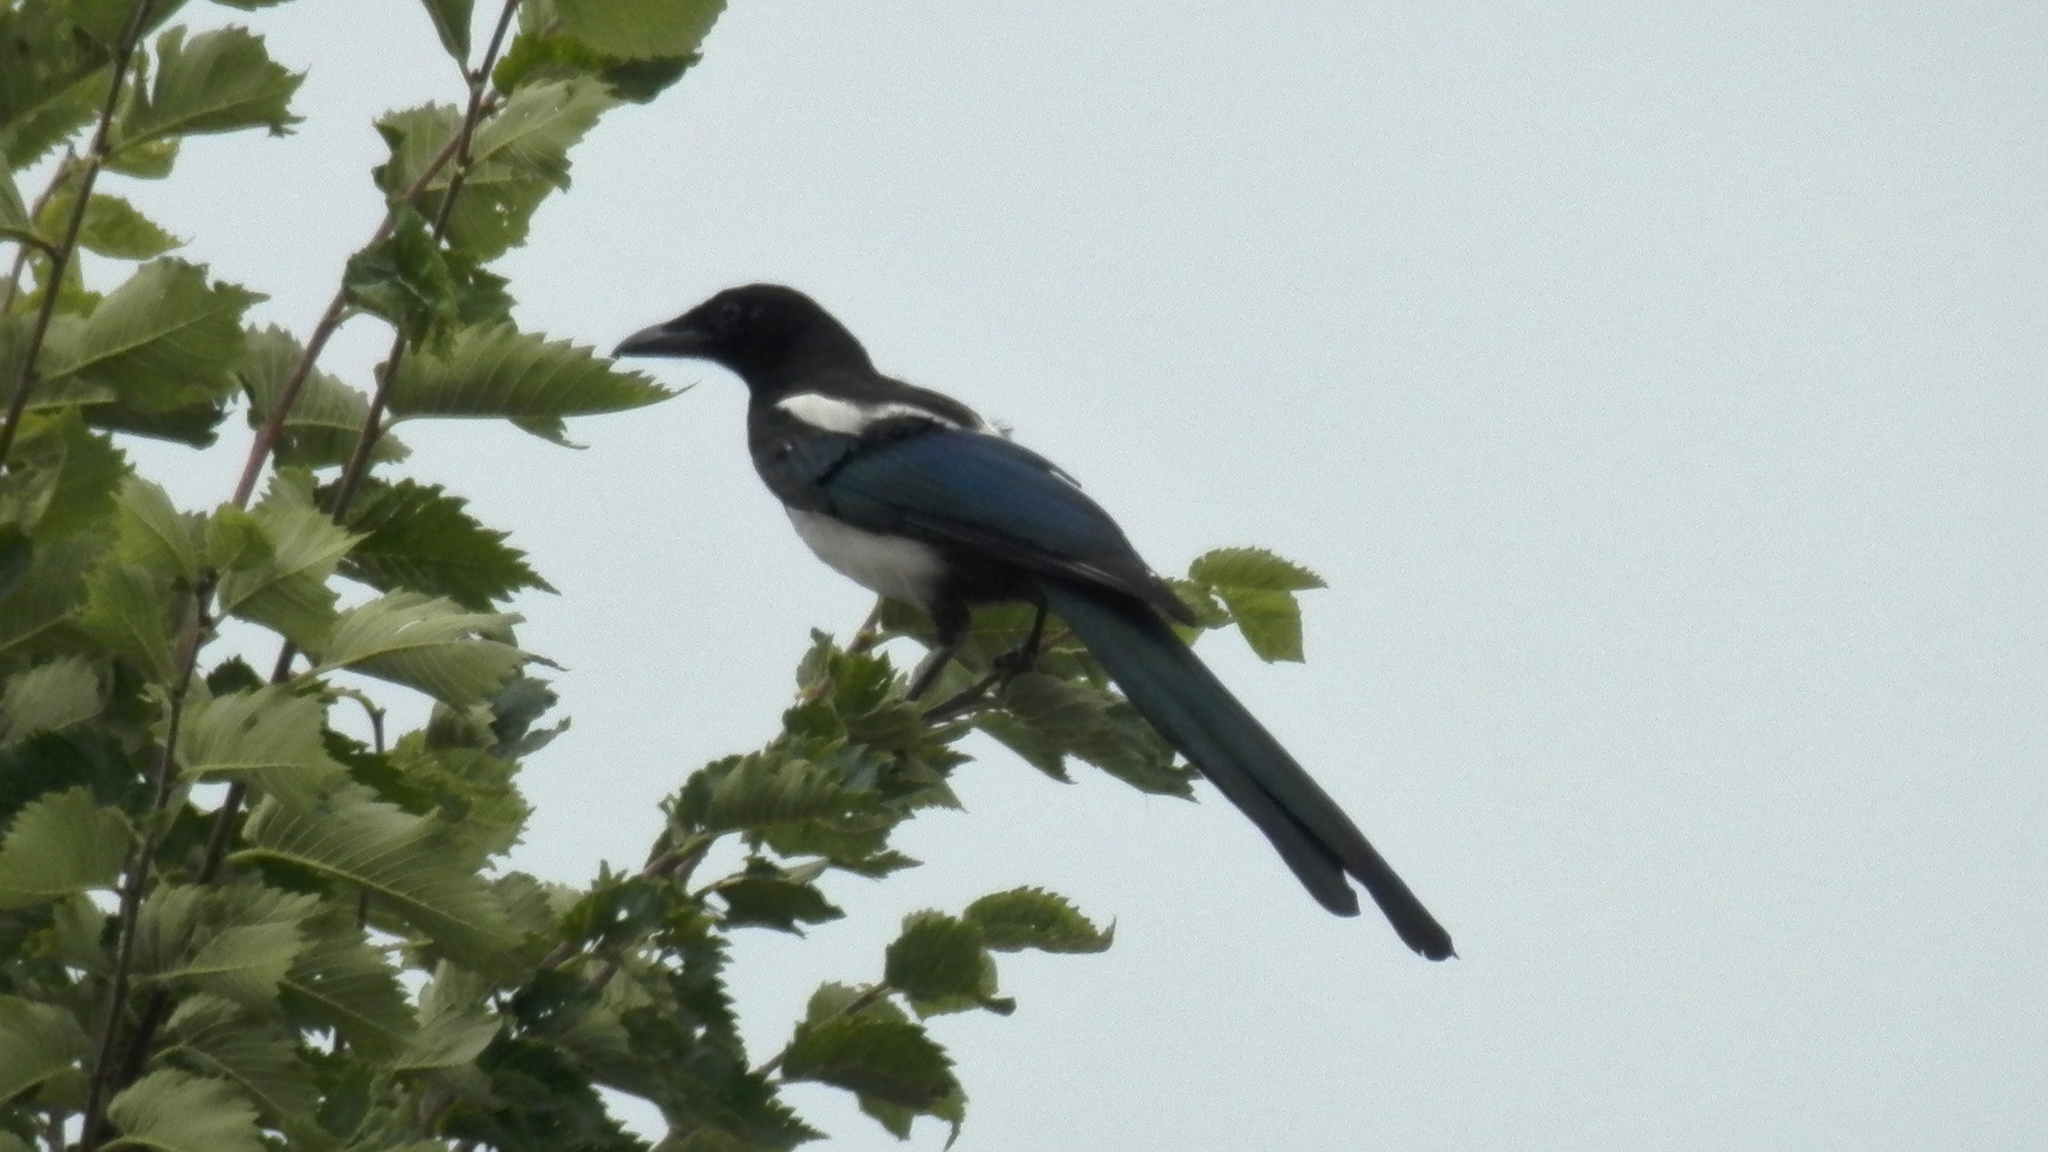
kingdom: Animalia
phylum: Chordata
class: Aves
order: Passeriformes
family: Corvidae
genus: Pica
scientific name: Pica hudsonia
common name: Black-billed magpie
